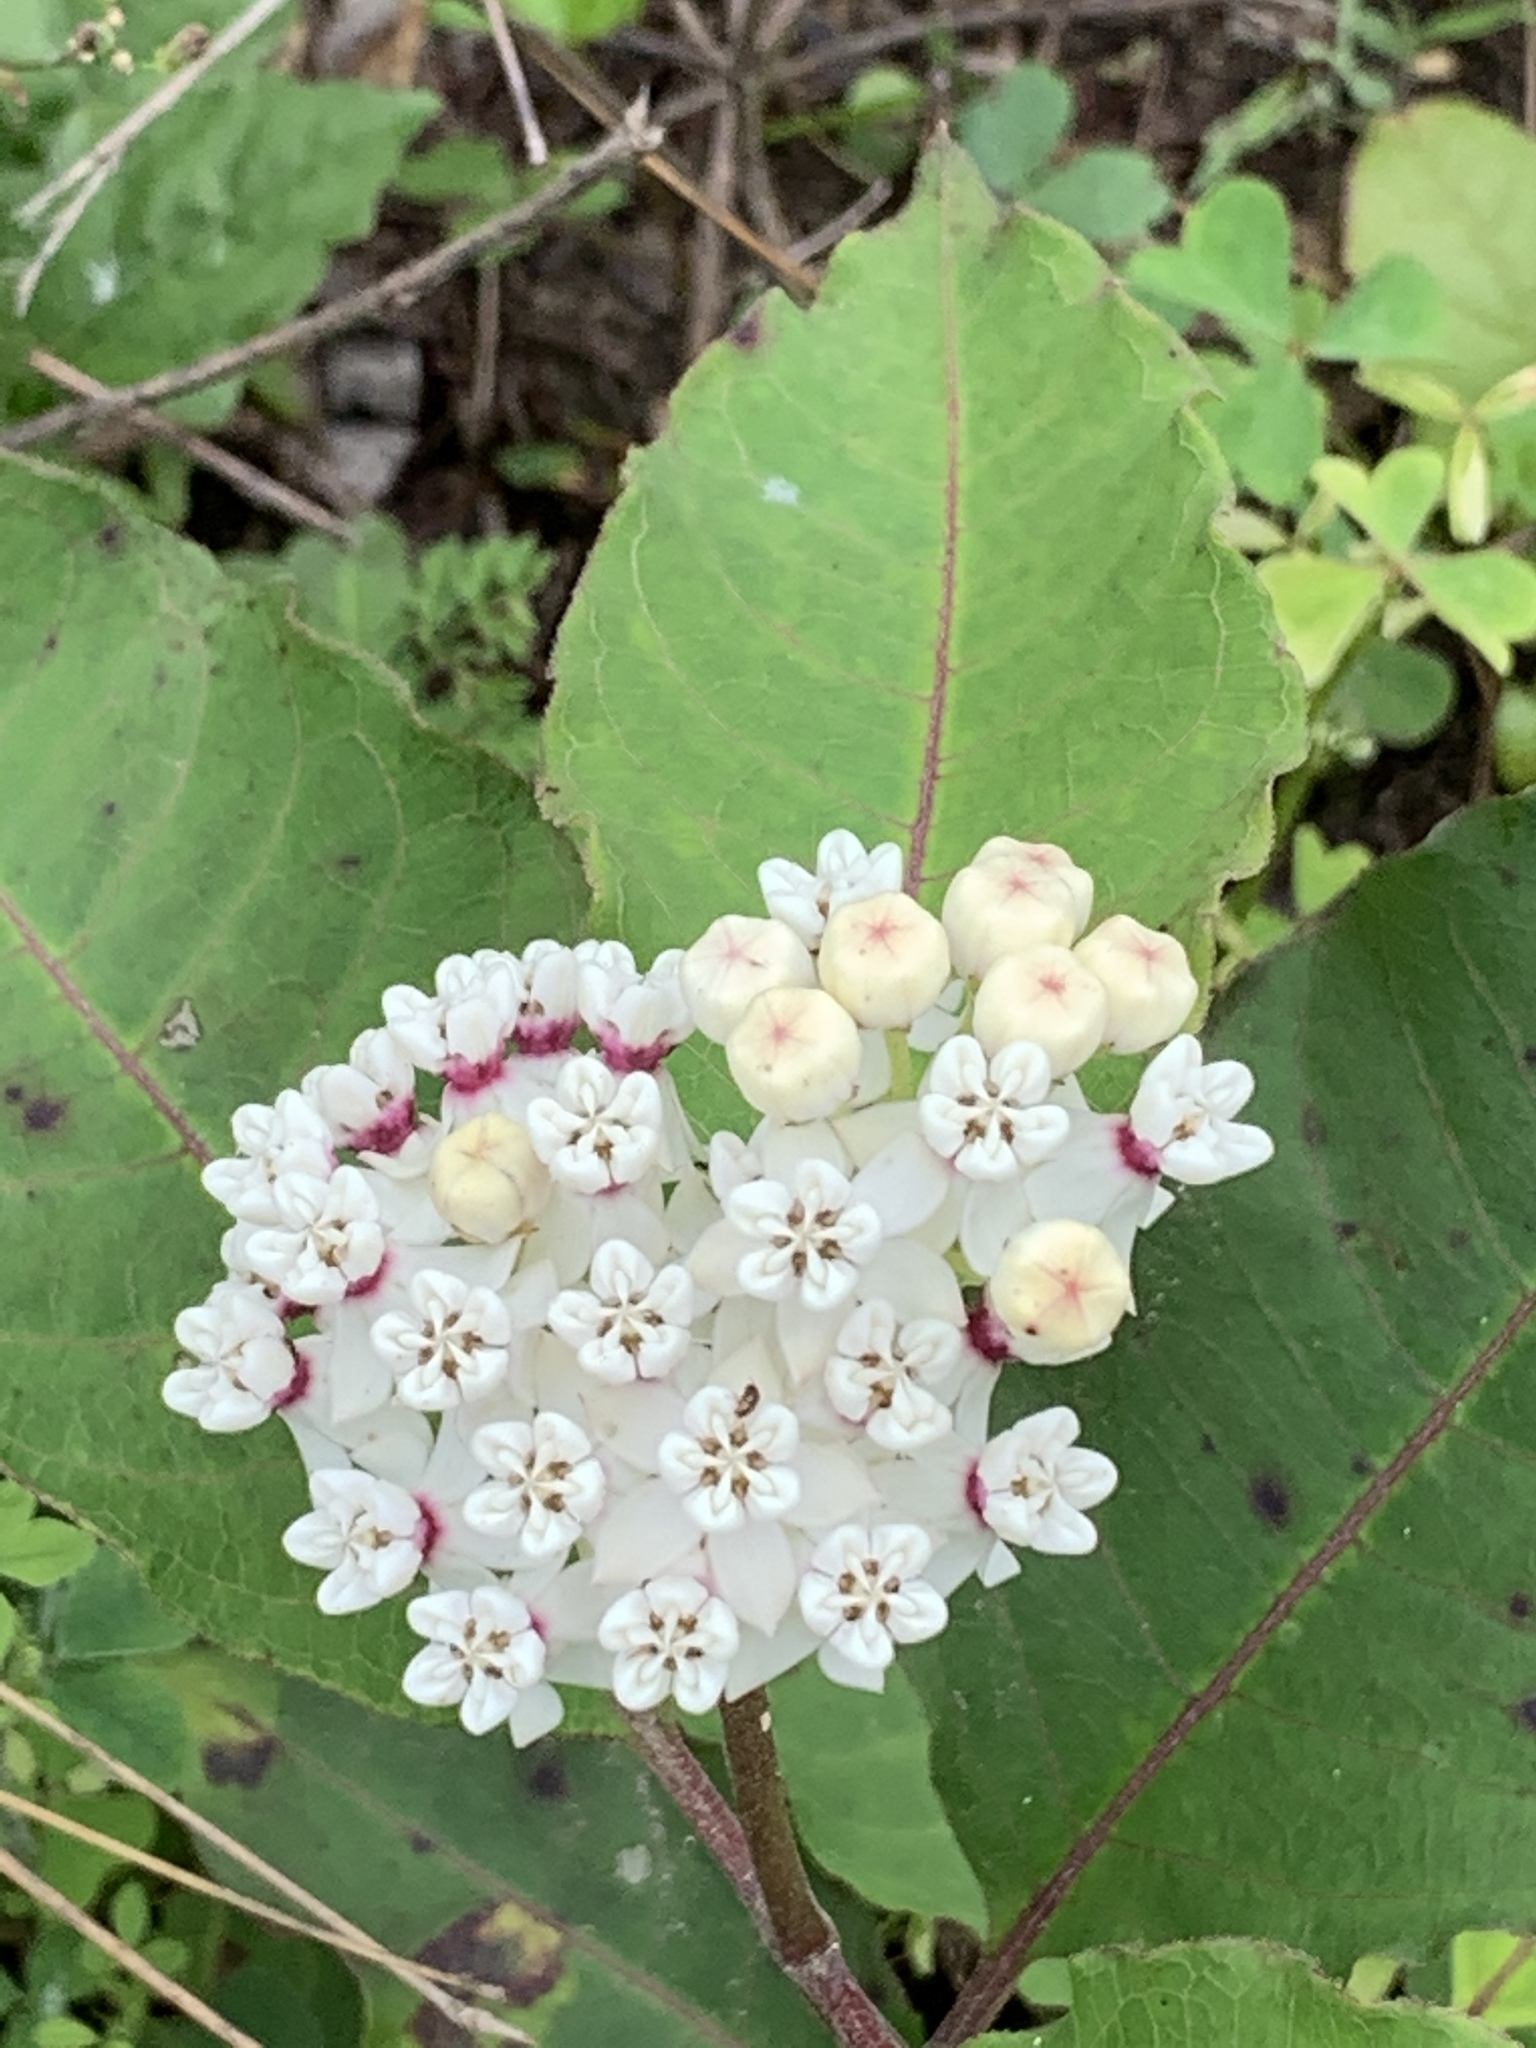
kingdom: Plantae
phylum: Tracheophyta
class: Magnoliopsida
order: Gentianales
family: Apocynaceae
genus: Asclepias
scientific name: Asclepias variegata
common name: Variegated milkweed
